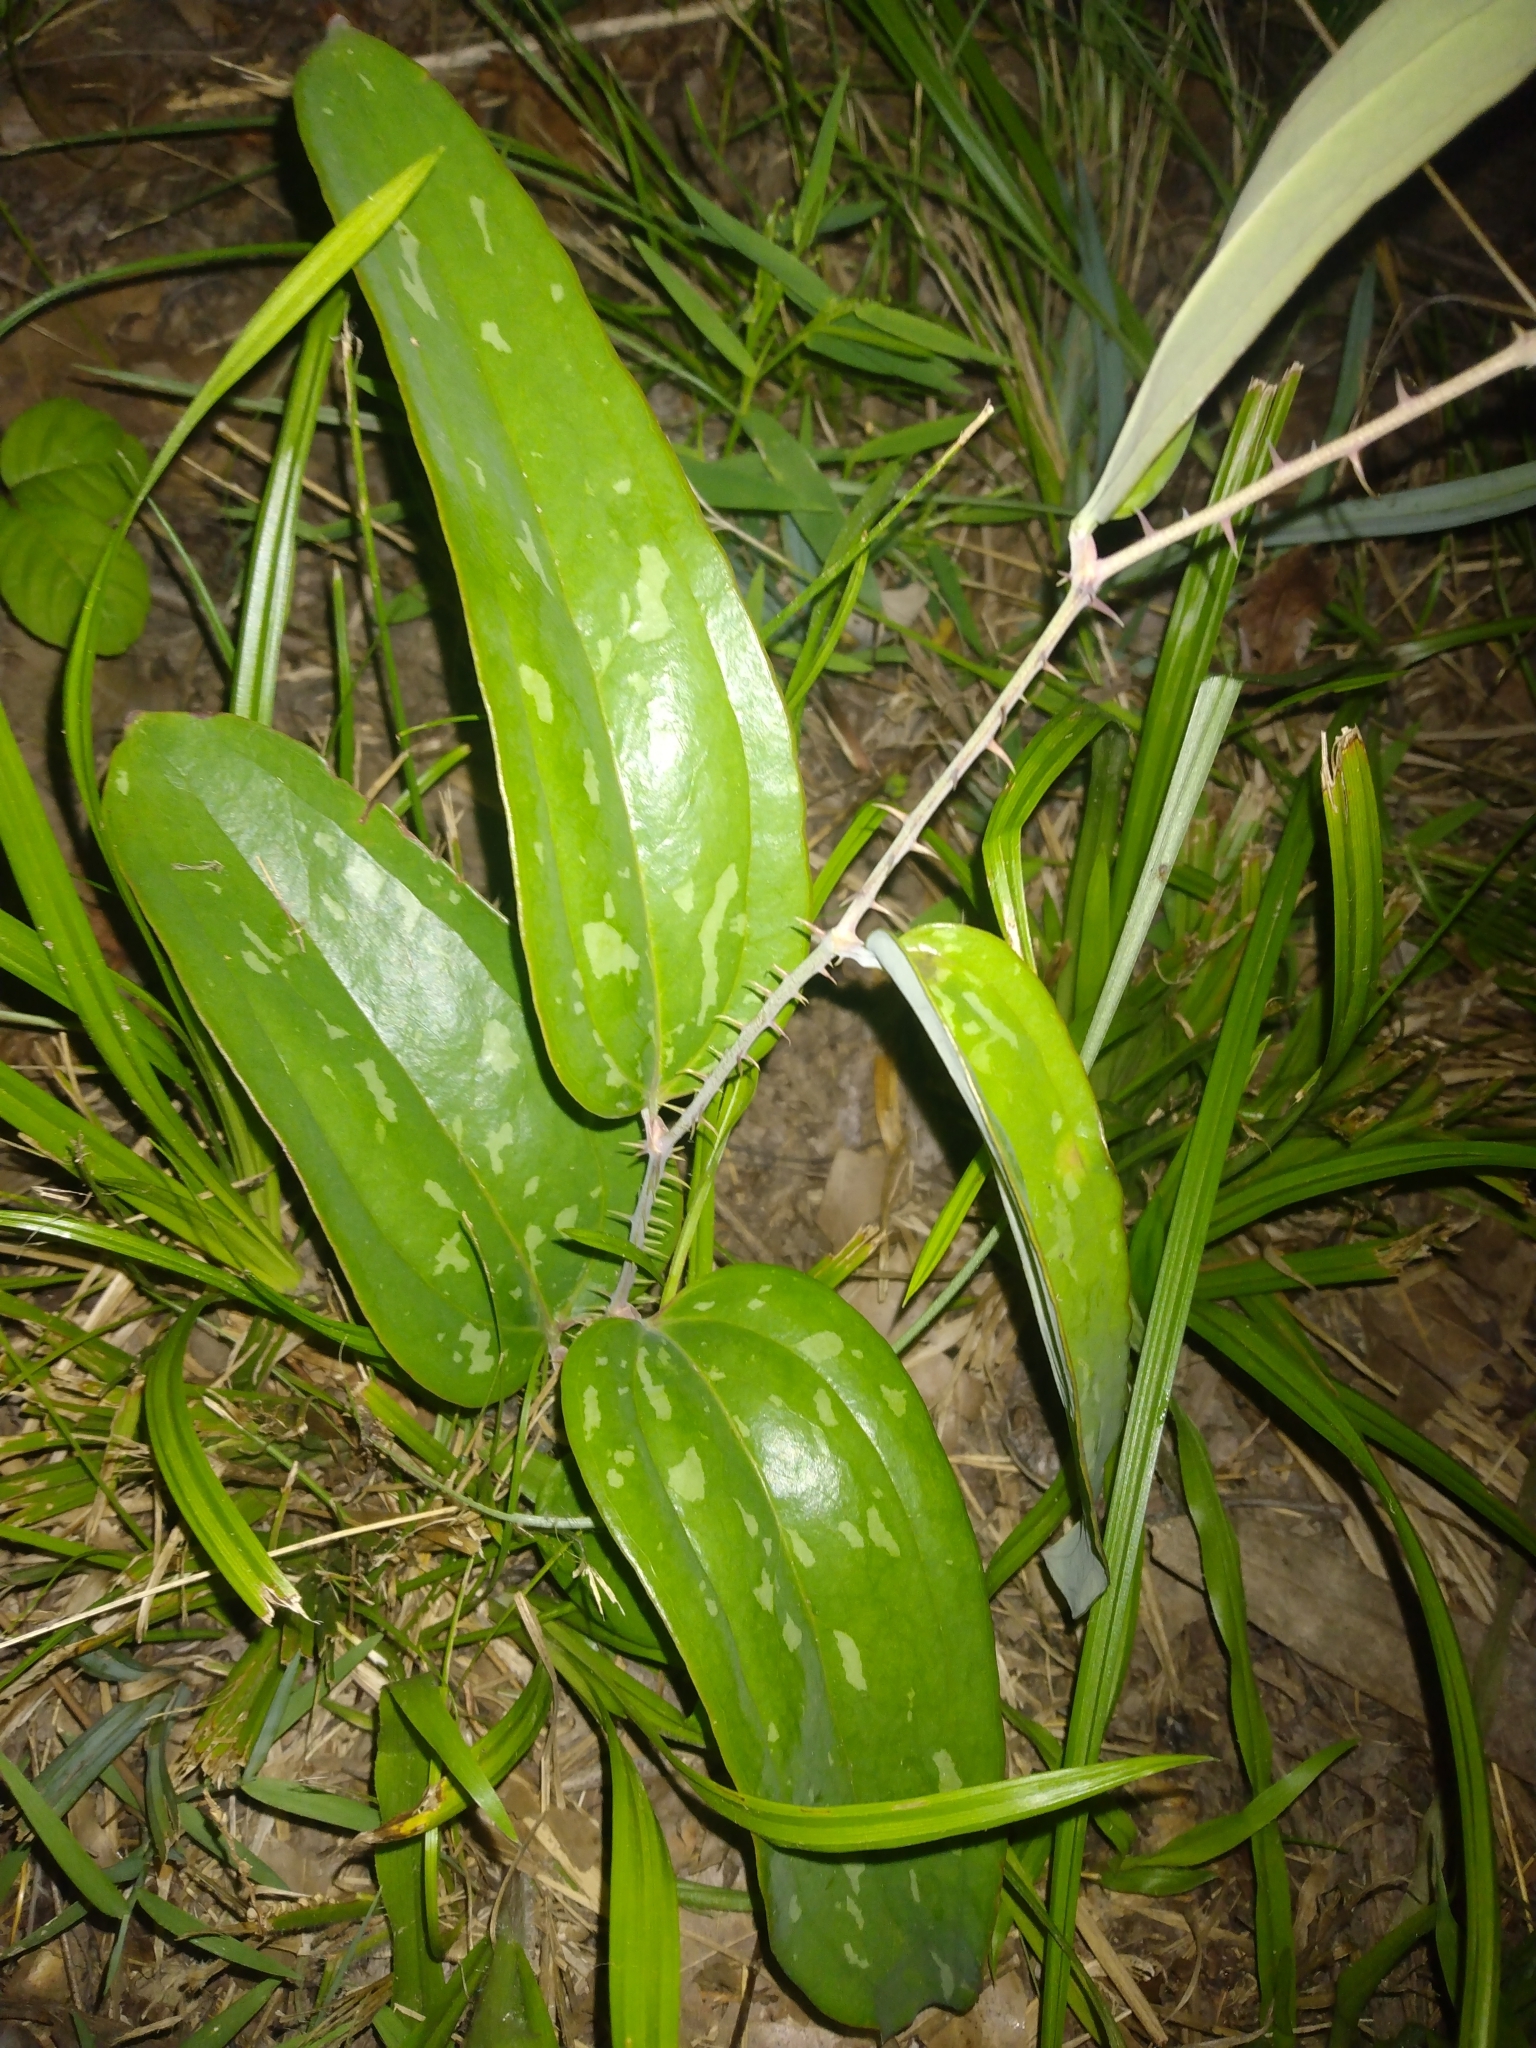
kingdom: Plantae
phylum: Tracheophyta
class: Liliopsida
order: Liliales
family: Smilacaceae
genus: Smilax
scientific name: Smilax bona-nox
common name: Catbrier
